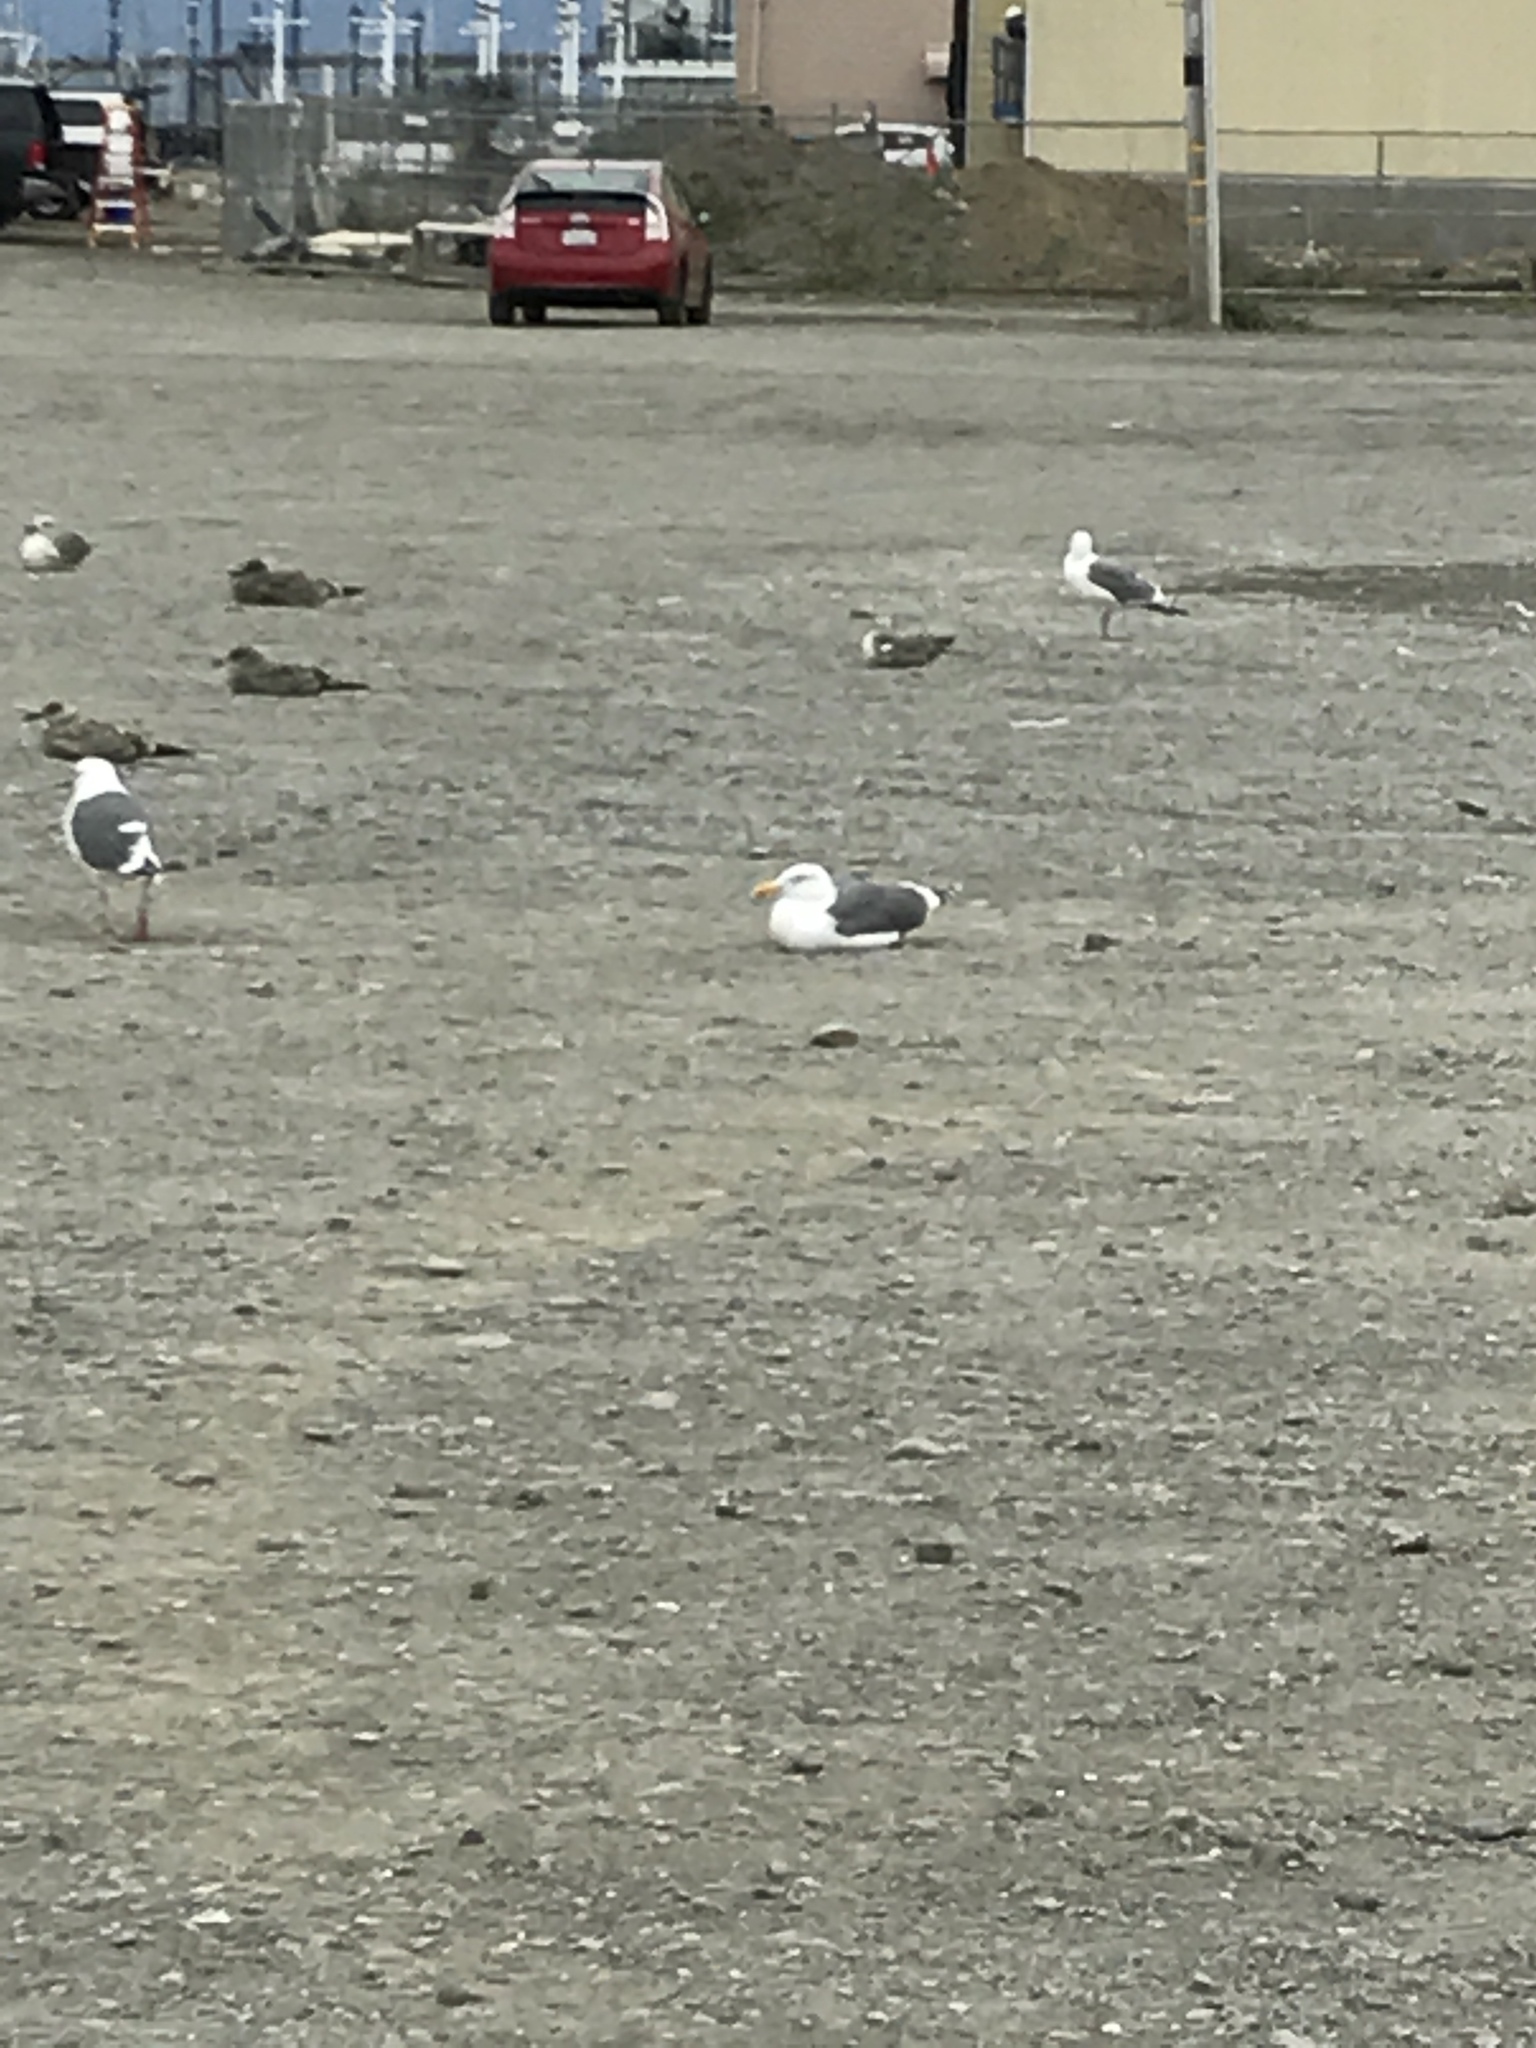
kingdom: Animalia
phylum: Chordata
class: Aves
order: Charadriiformes
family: Laridae
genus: Larus
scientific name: Larus occidentalis
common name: Western gull
